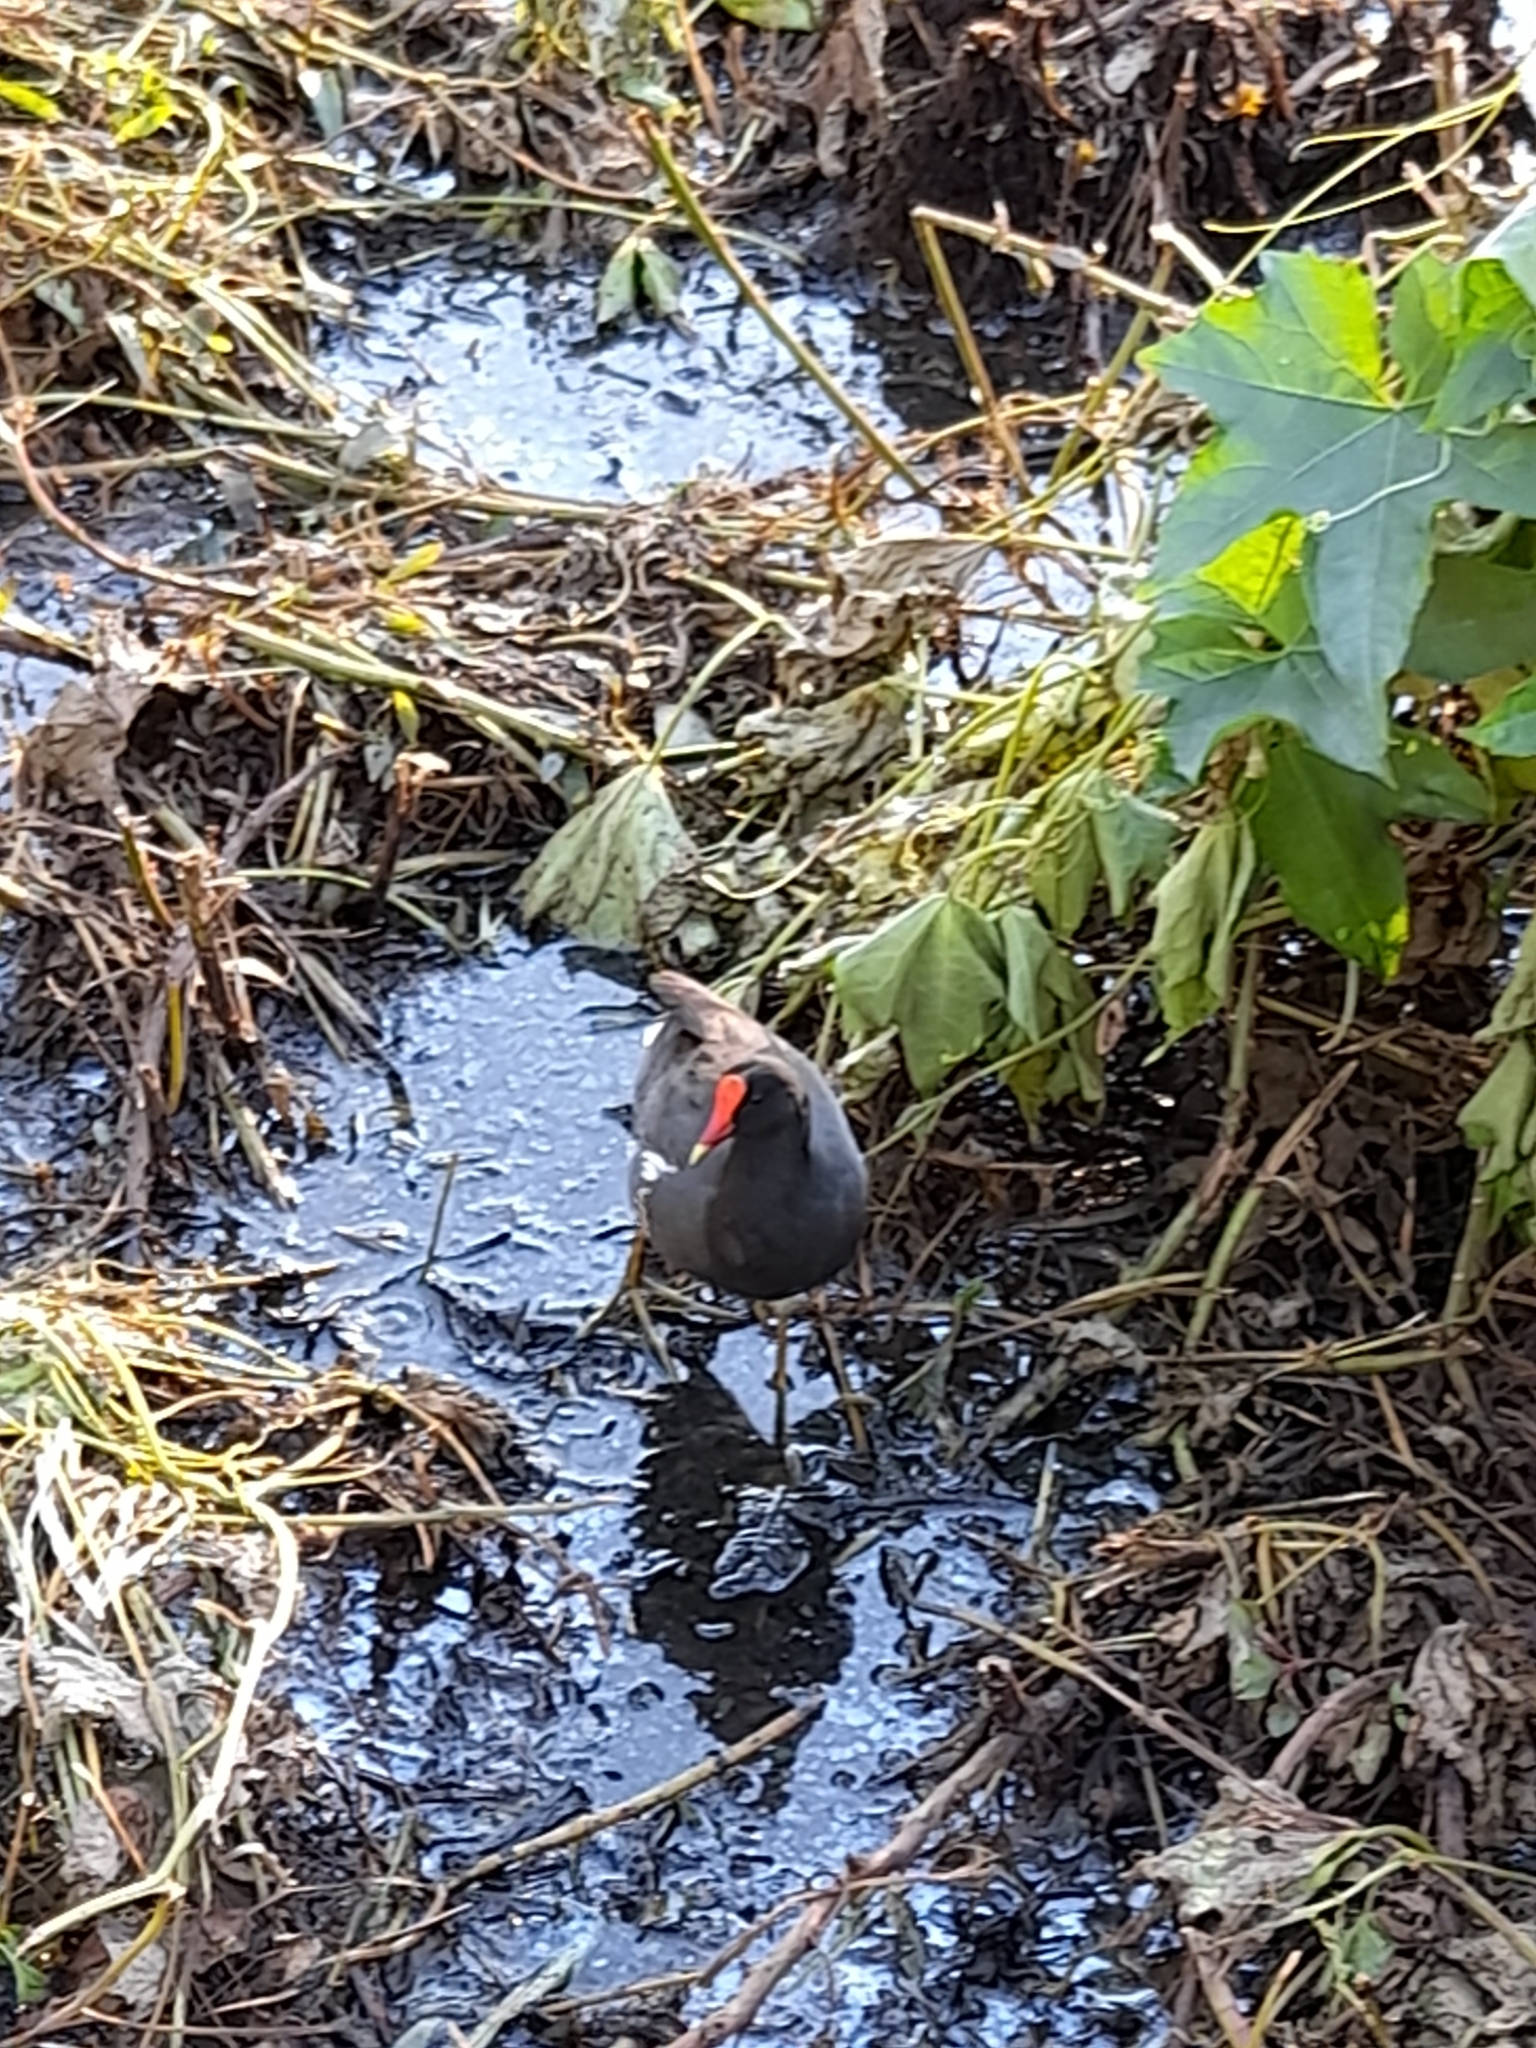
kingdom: Animalia
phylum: Chordata
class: Aves
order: Gruiformes
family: Rallidae
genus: Gallinula
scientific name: Gallinula chloropus
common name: Common moorhen
